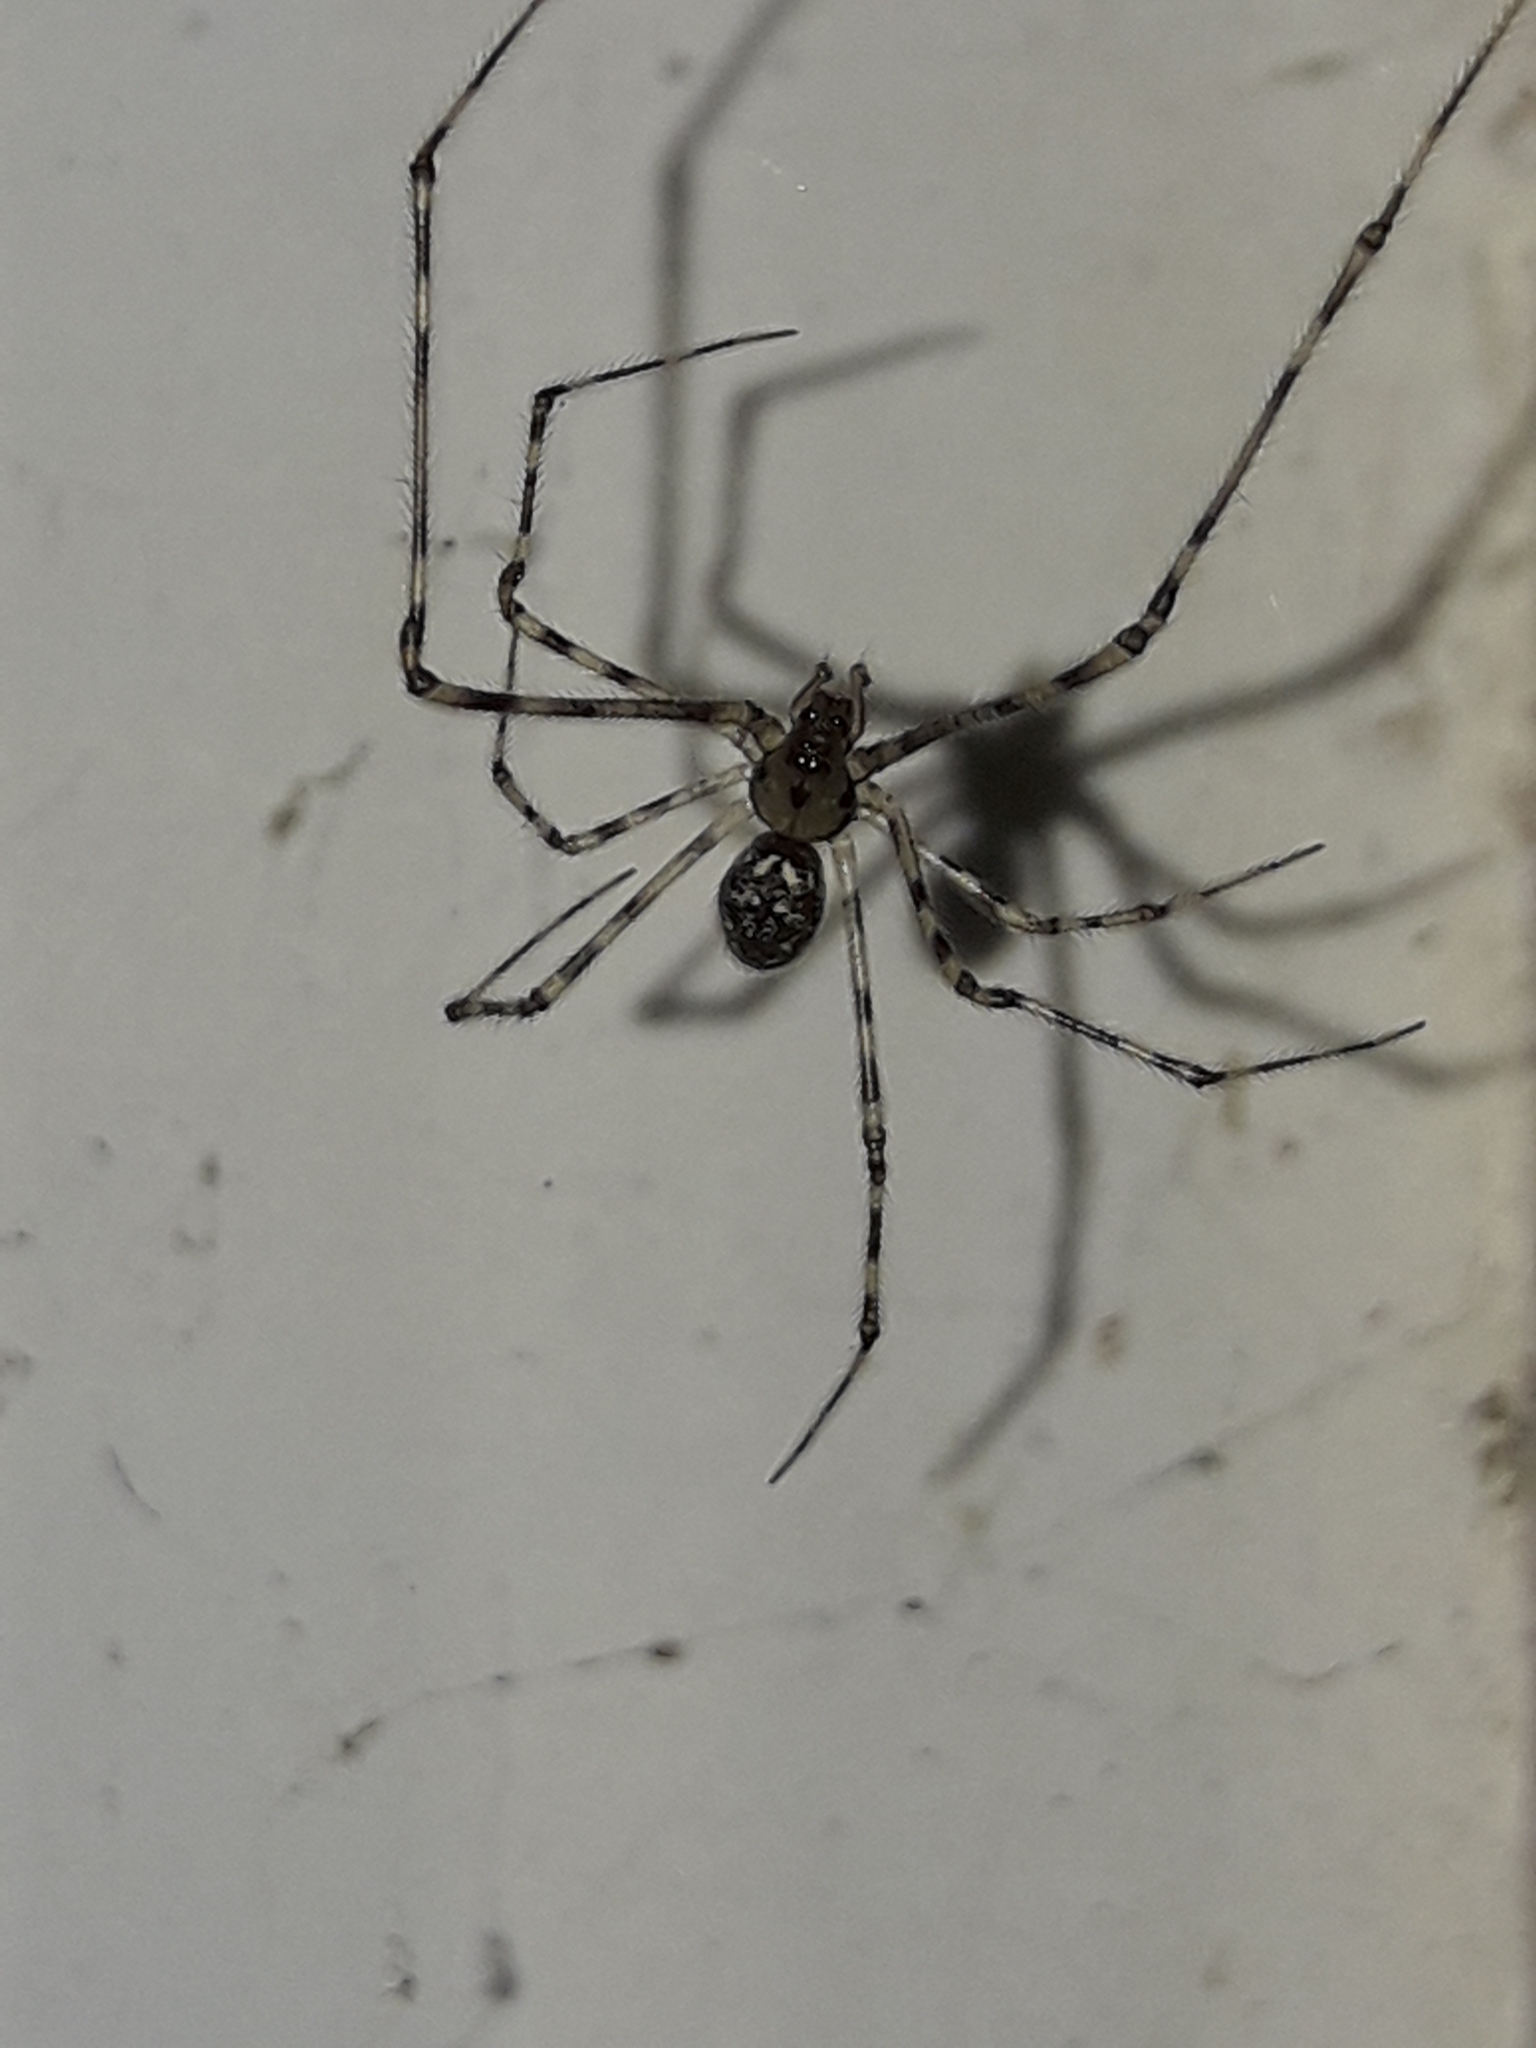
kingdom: Animalia
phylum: Arthropoda
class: Arachnida
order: Araneae
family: Theridiidae
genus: Cryptachaea
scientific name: Cryptachaea gigantipes
